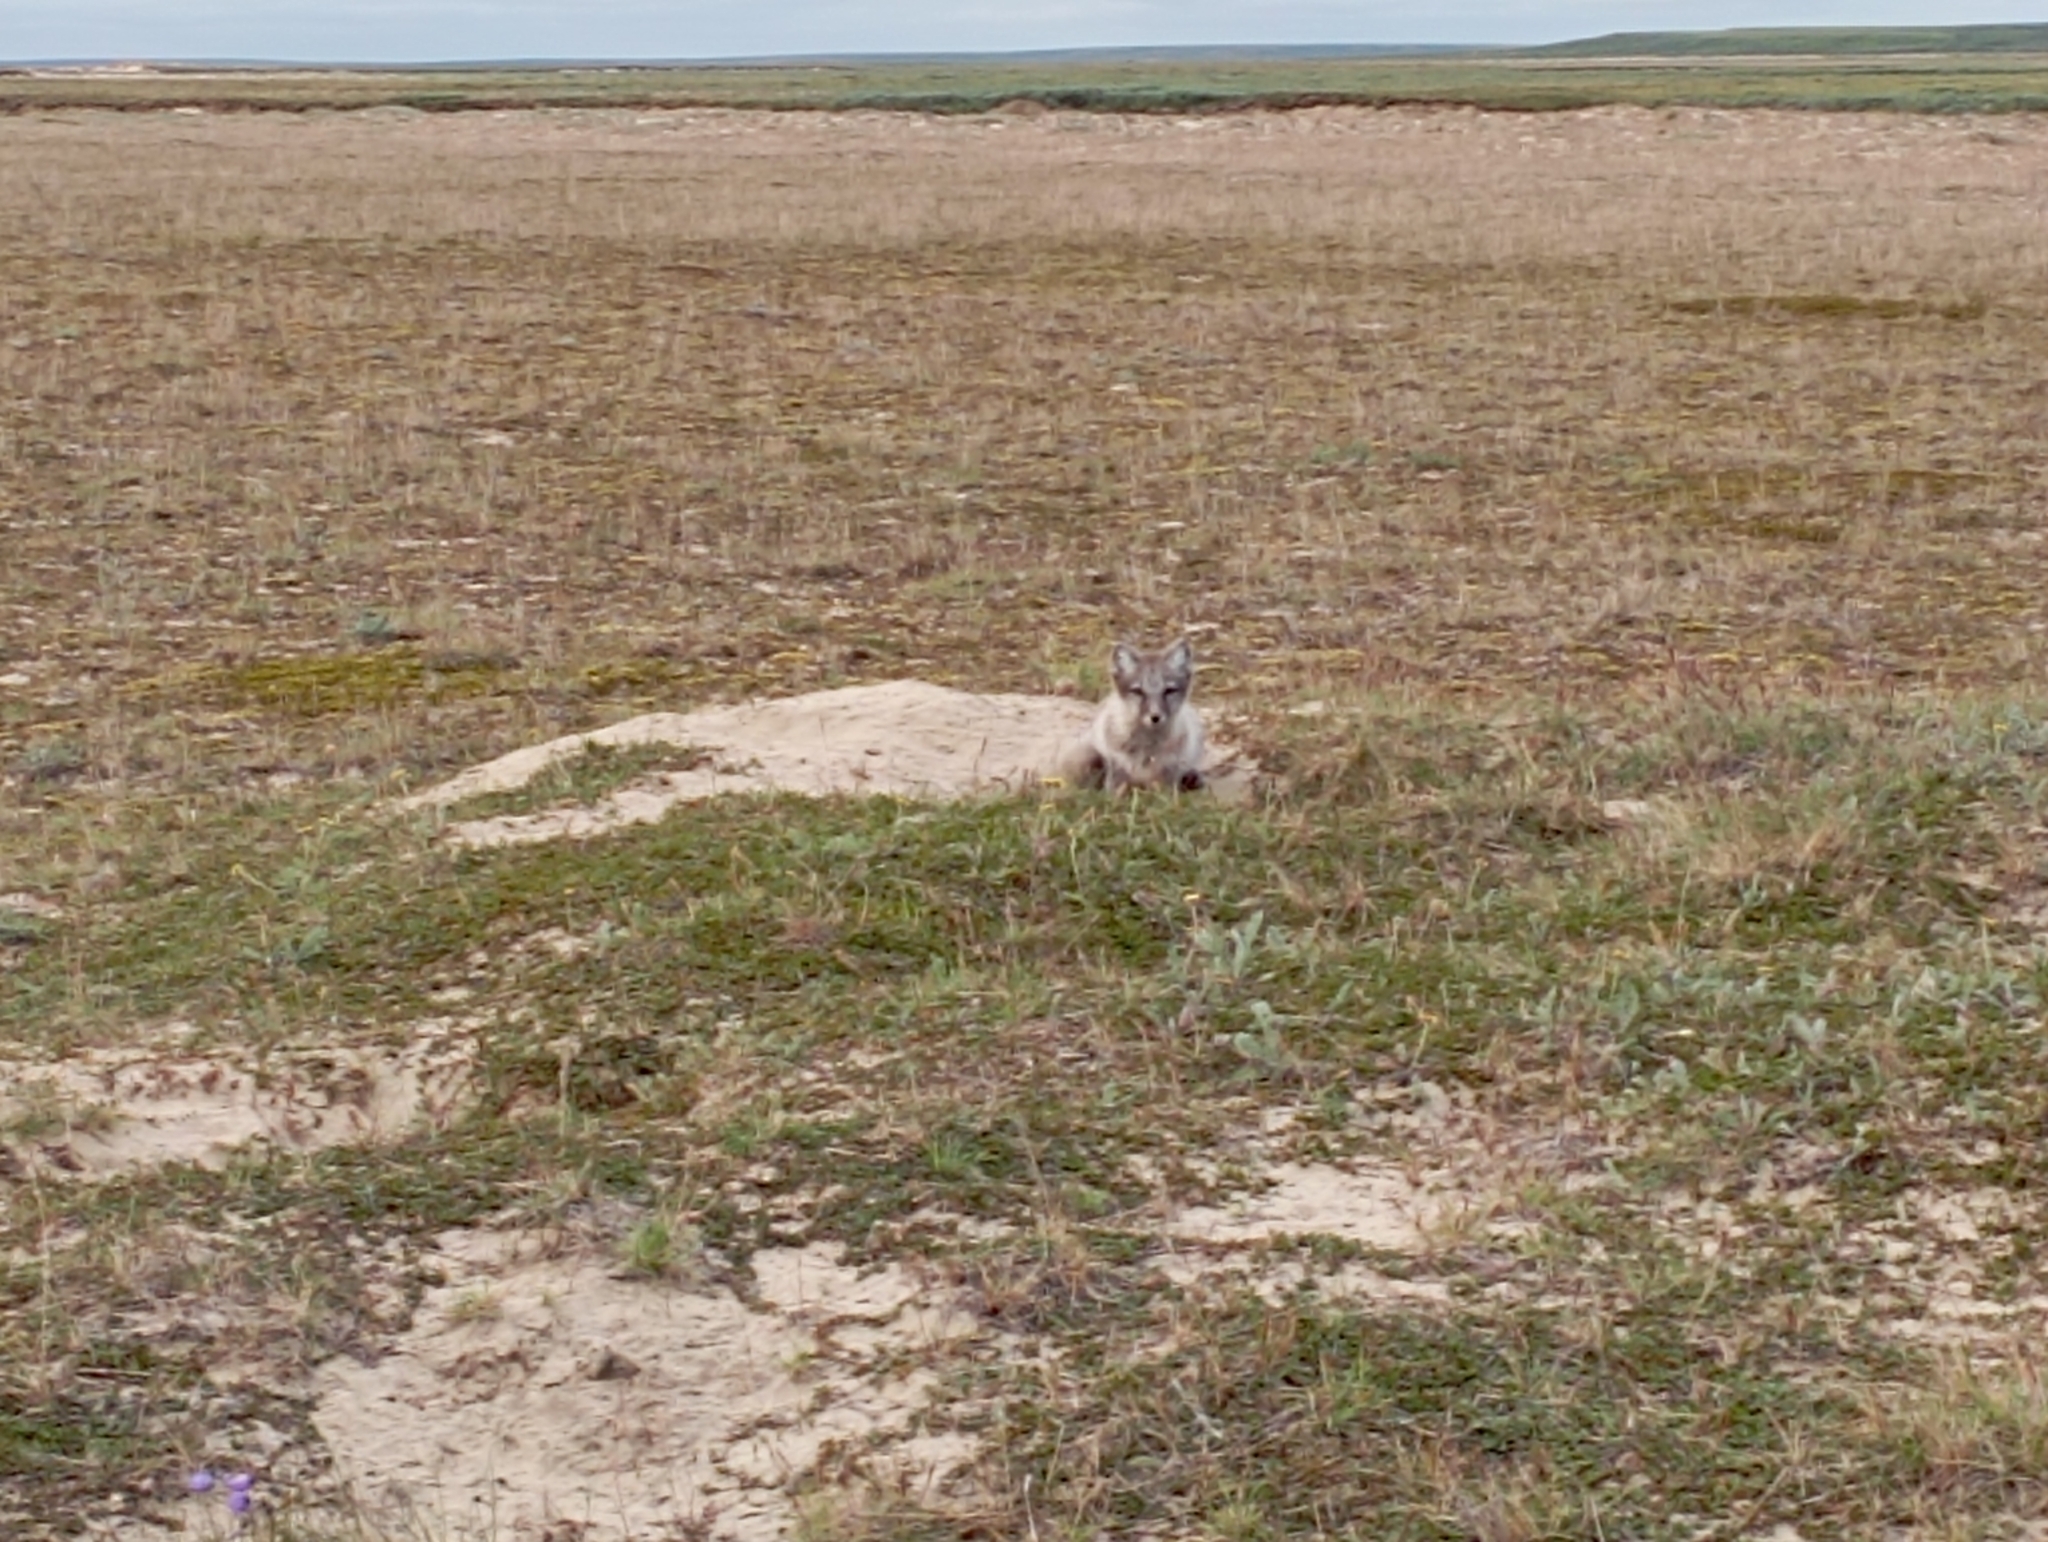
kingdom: Animalia
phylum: Chordata
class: Mammalia
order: Carnivora
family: Canidae
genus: Vulpes
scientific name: Vulpes lagopus
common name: Arctic fox
